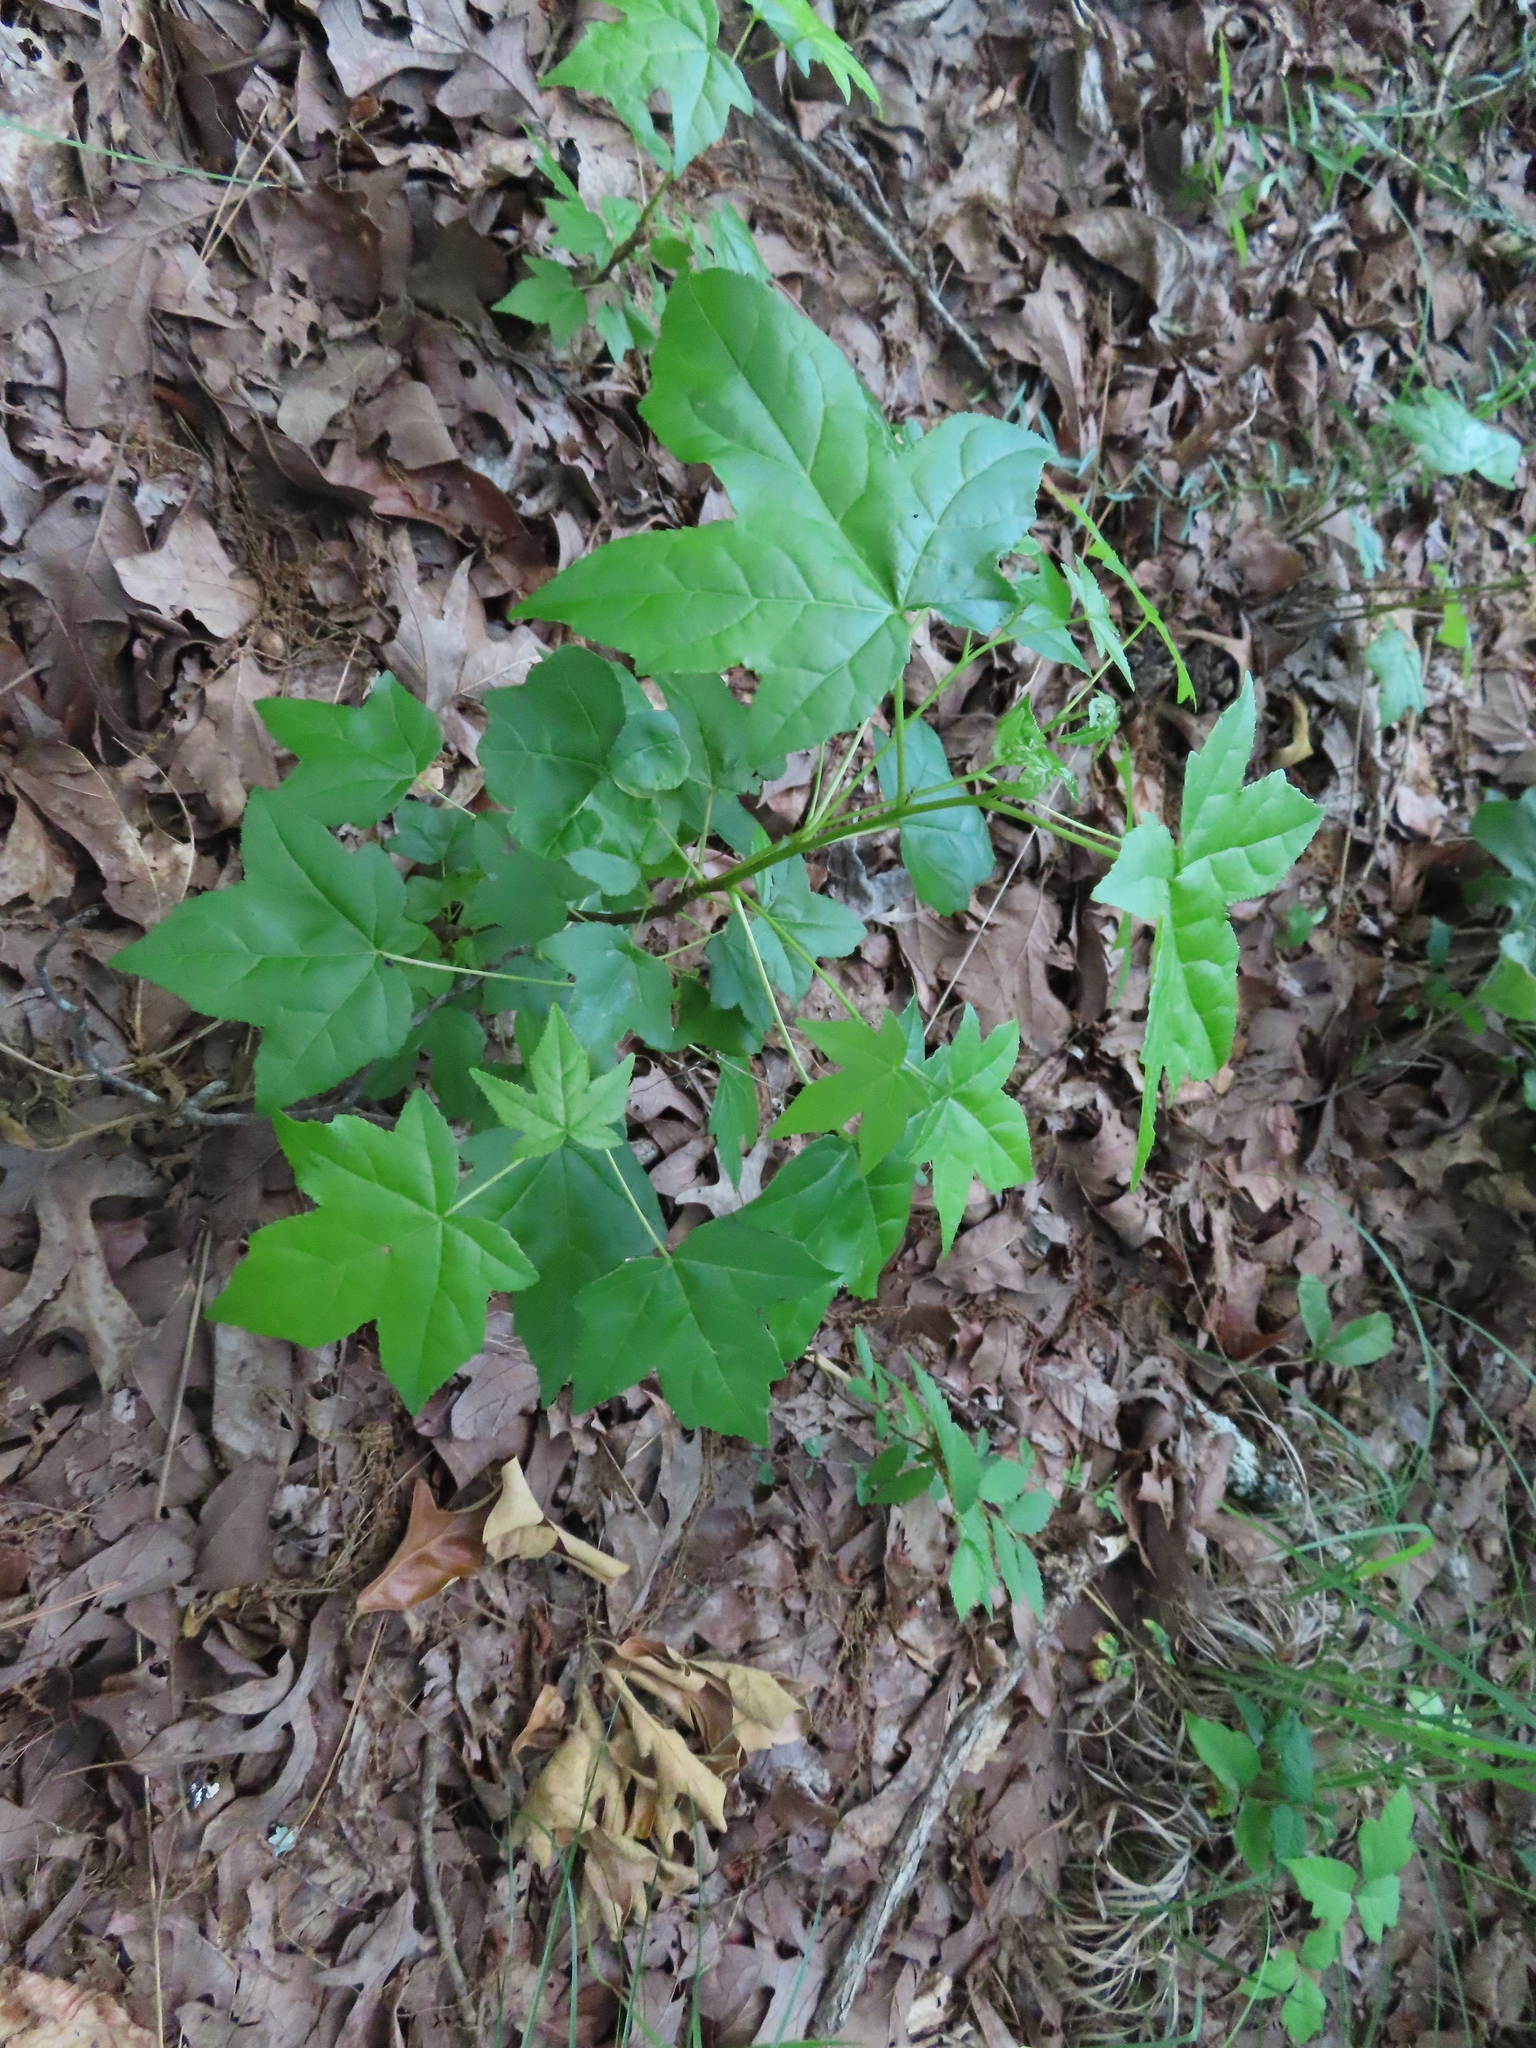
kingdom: Plantae
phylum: Tracheophyta
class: Magnoliopsida
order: Saxifragales
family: Altingiaceae
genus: Liquidambar
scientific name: Liquidambar styraciflua
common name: Sweet gum
